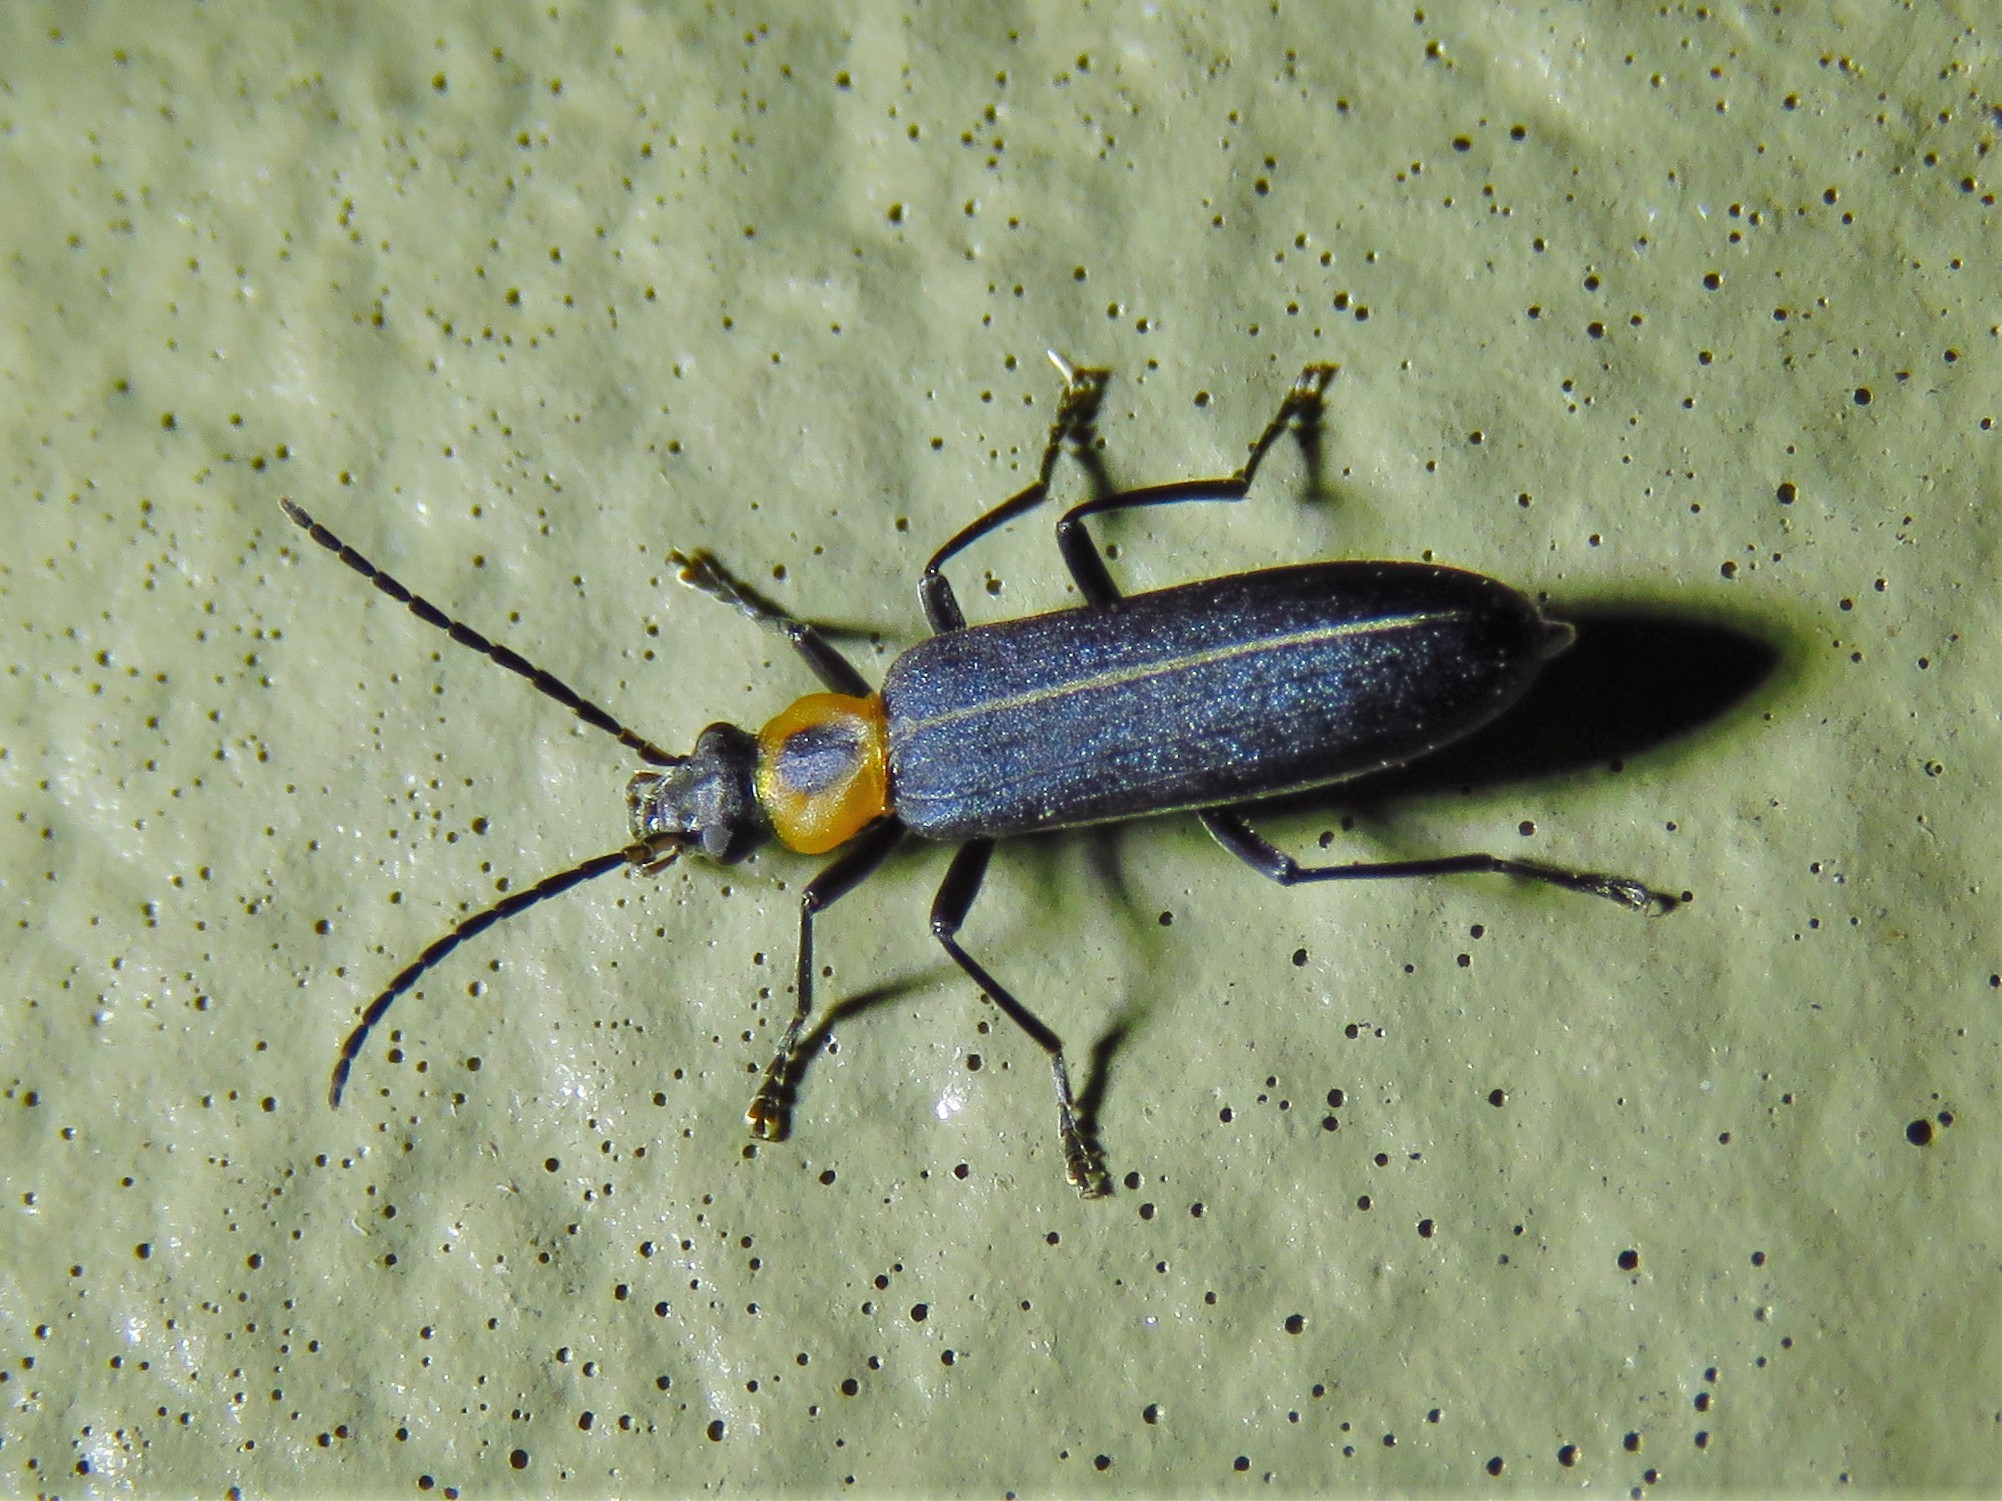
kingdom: Animalia
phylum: Arthropoda
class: Insecta
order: Coleoptera
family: Oedemeridae
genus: Ischnomera
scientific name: Ischnomera
